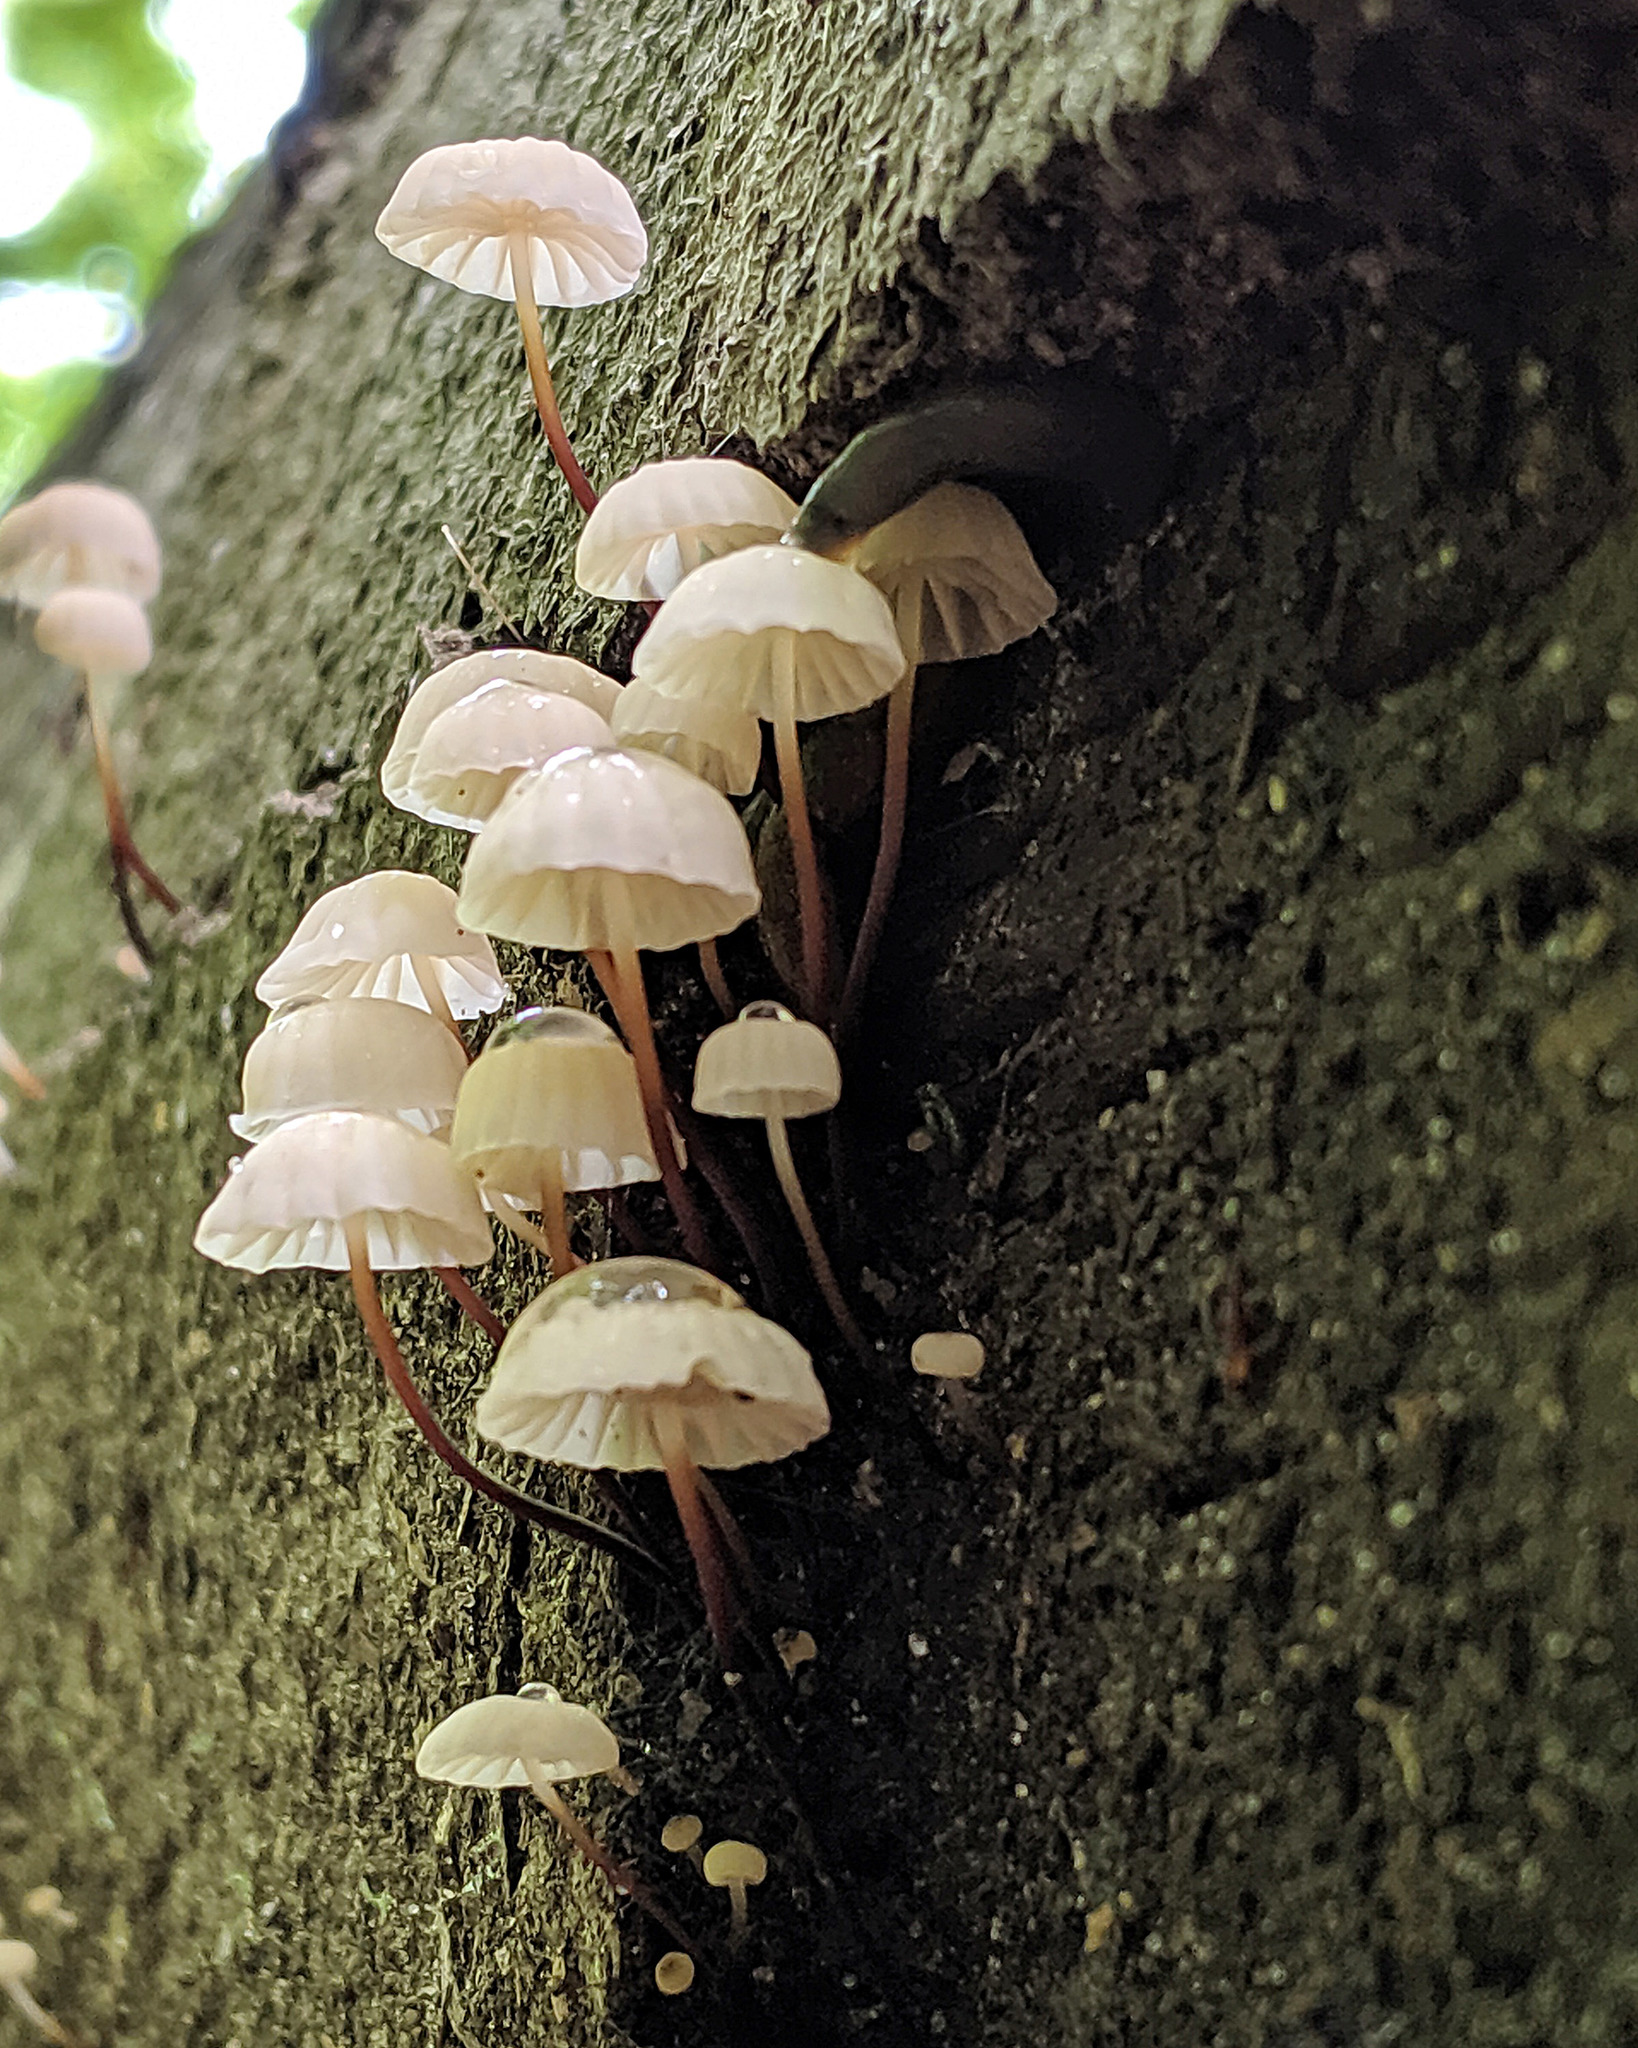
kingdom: Fungi
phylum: Basidiomycota
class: Agaricomycetes
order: Agaricales
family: Marasmiaceae
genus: Marasmius
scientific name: Marasmius rotula
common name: Collared parachute
